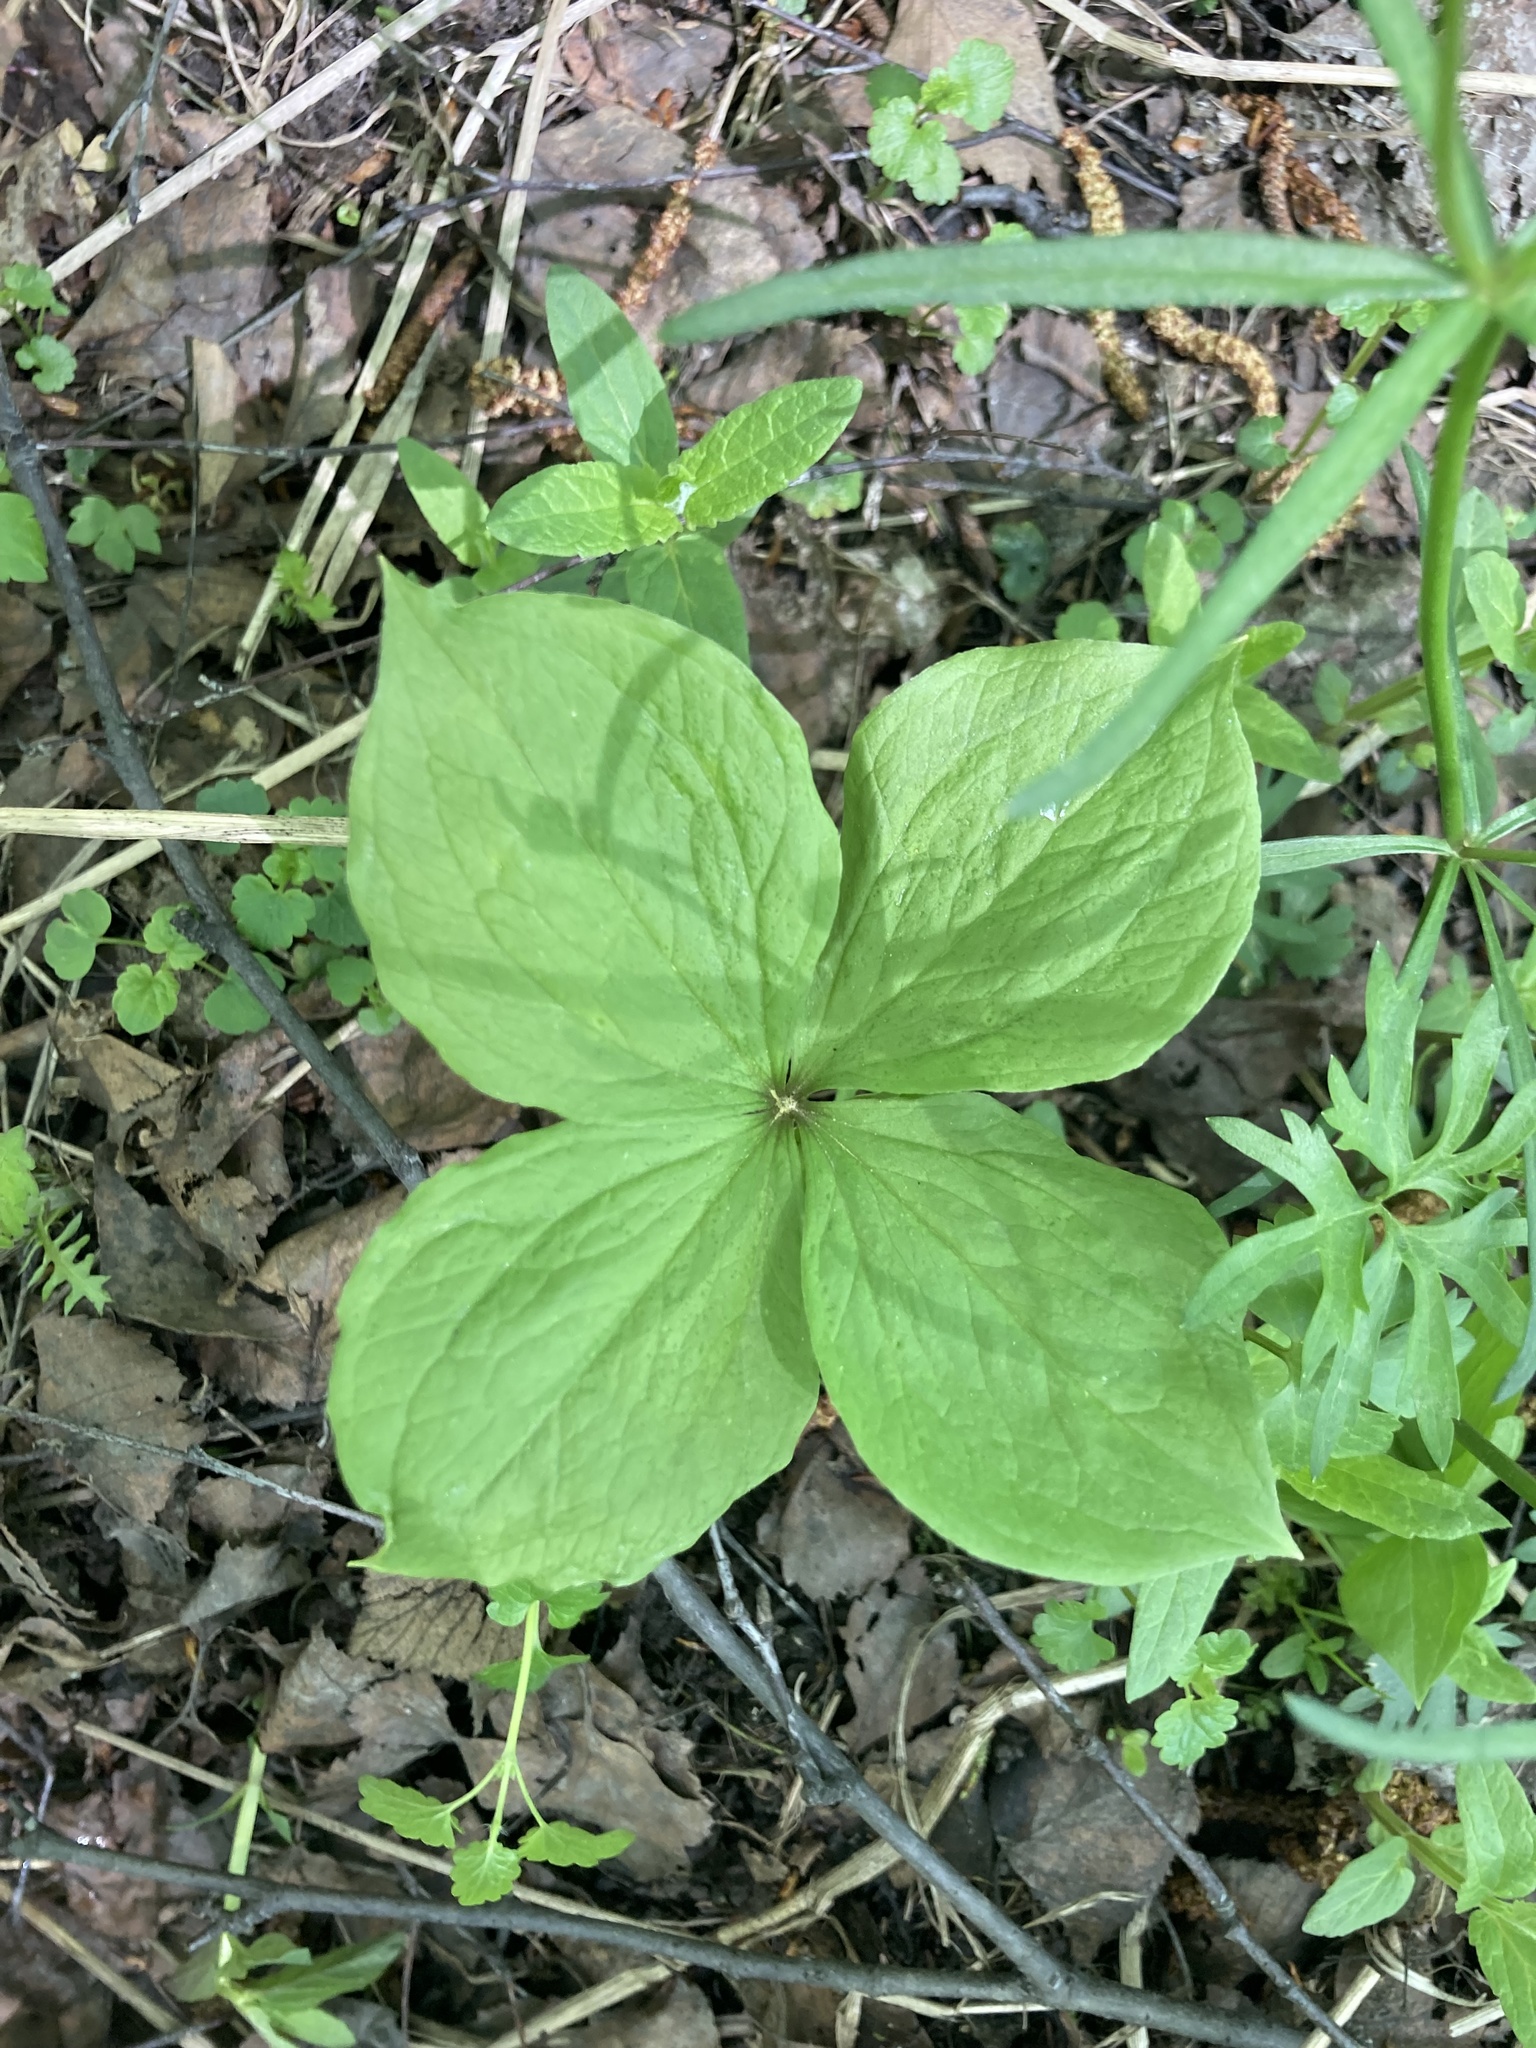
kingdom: Plantae
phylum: Tracheophyta
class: Liliopsida
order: Liliales
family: Melanthiaceae
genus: Paris
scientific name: Paris quadrifolia
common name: Herb-paris
